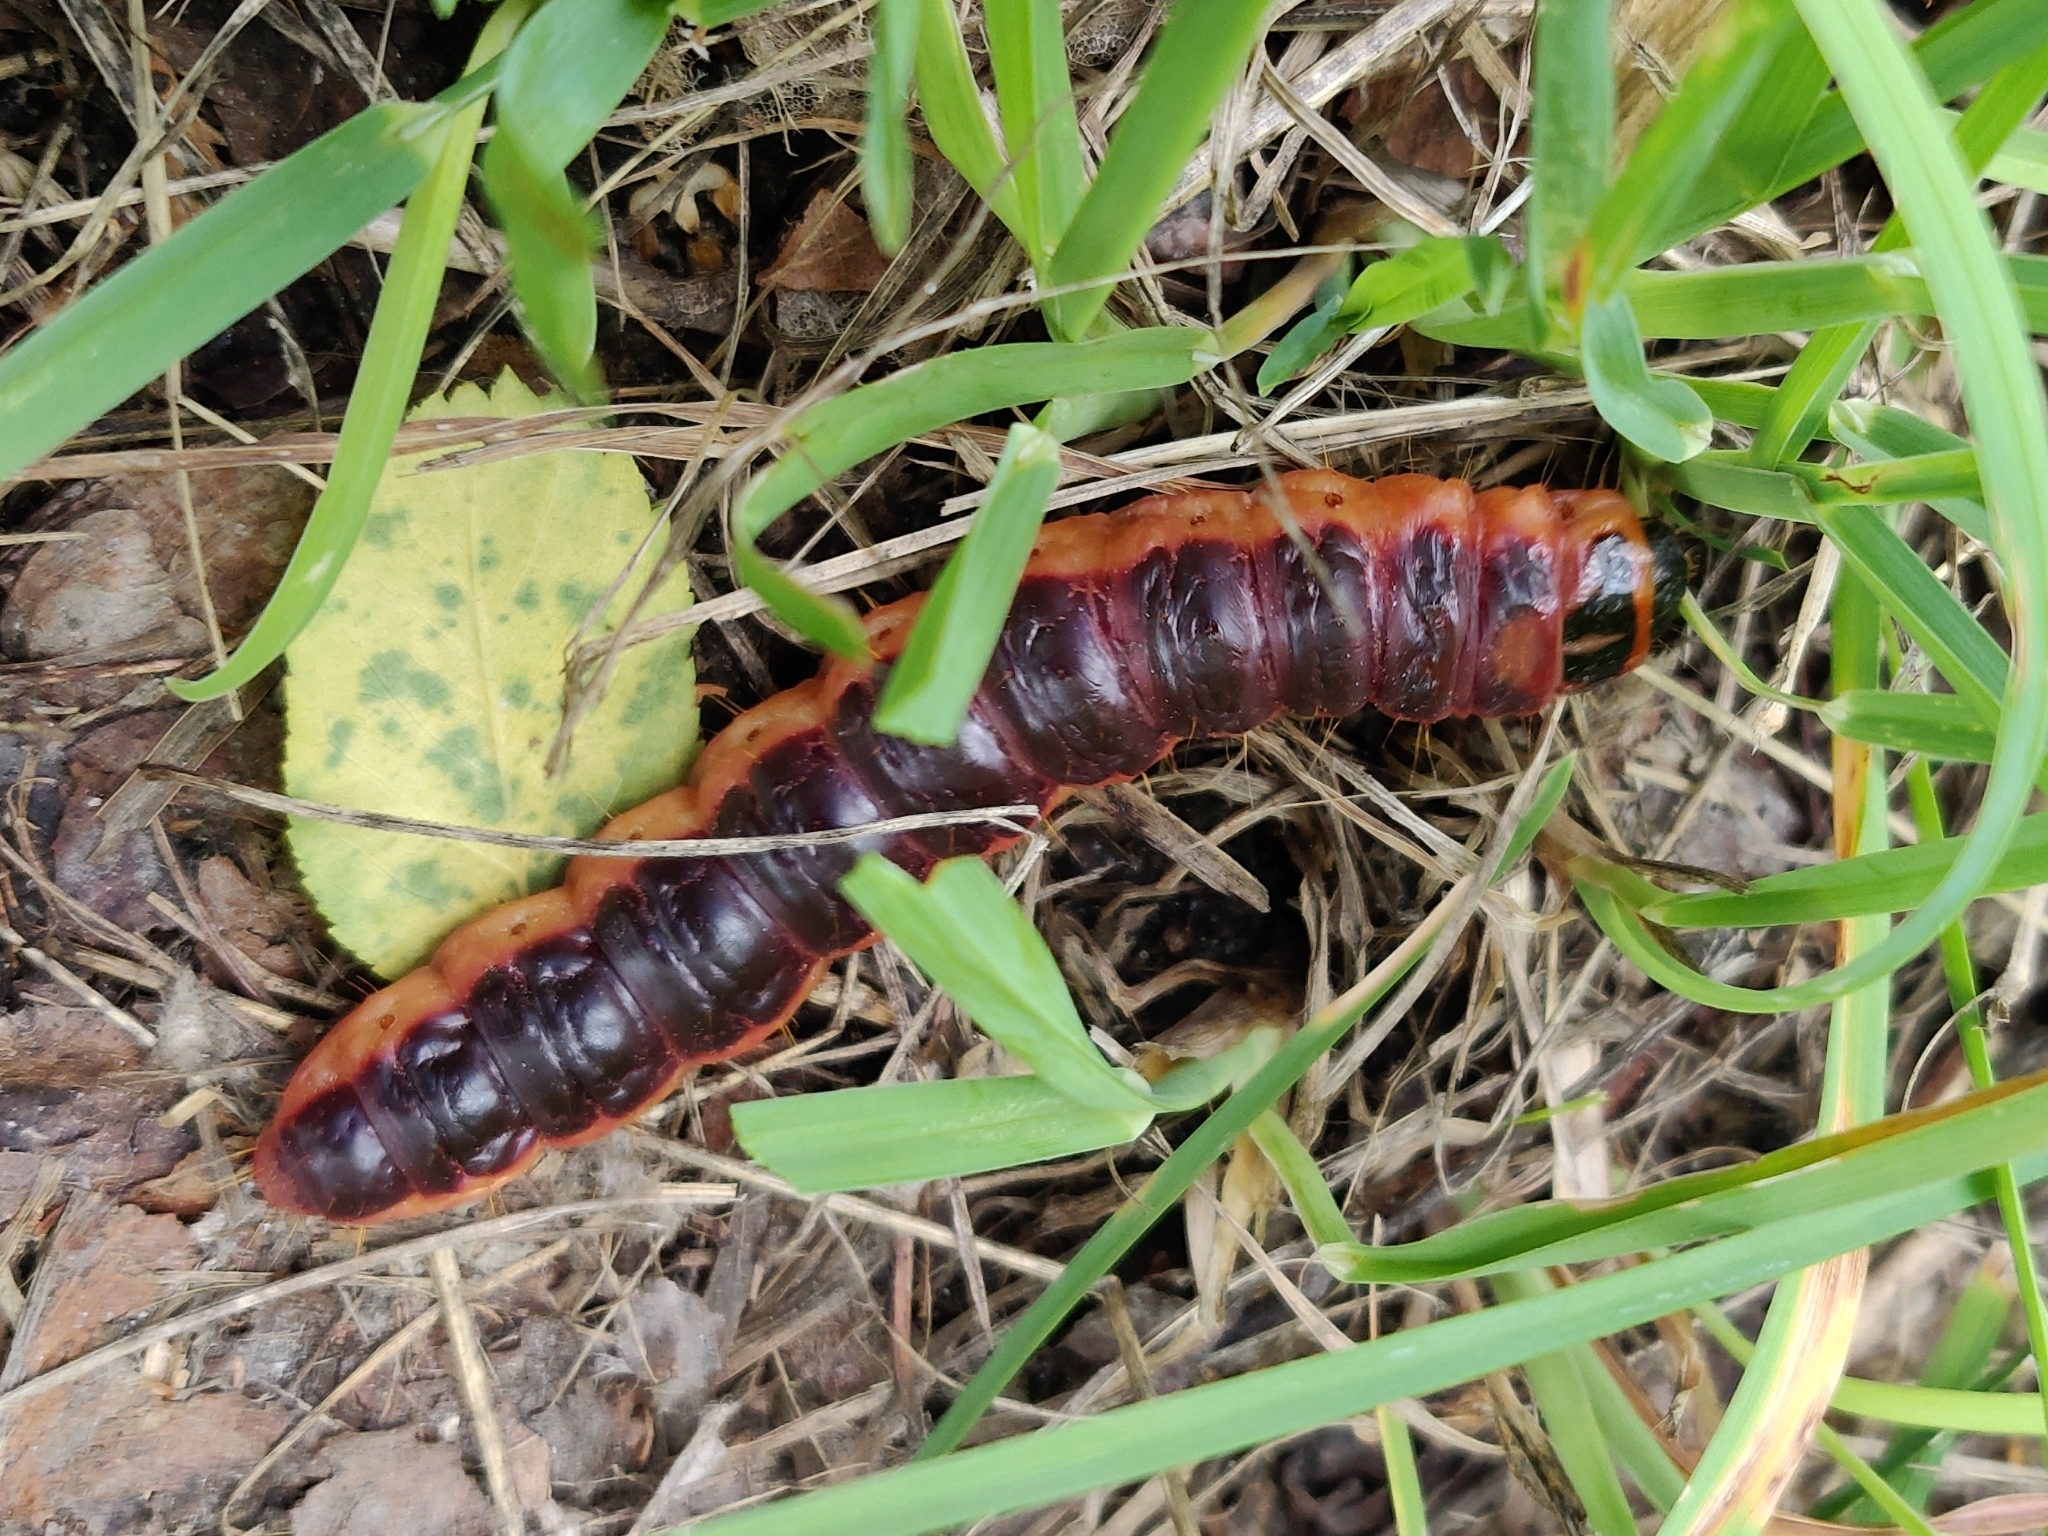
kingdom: Animalia
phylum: Arthropoda
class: Insecta
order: Lepidoptera
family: Cossidae
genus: Cossus
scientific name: Cossus cossus
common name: Goat moth
